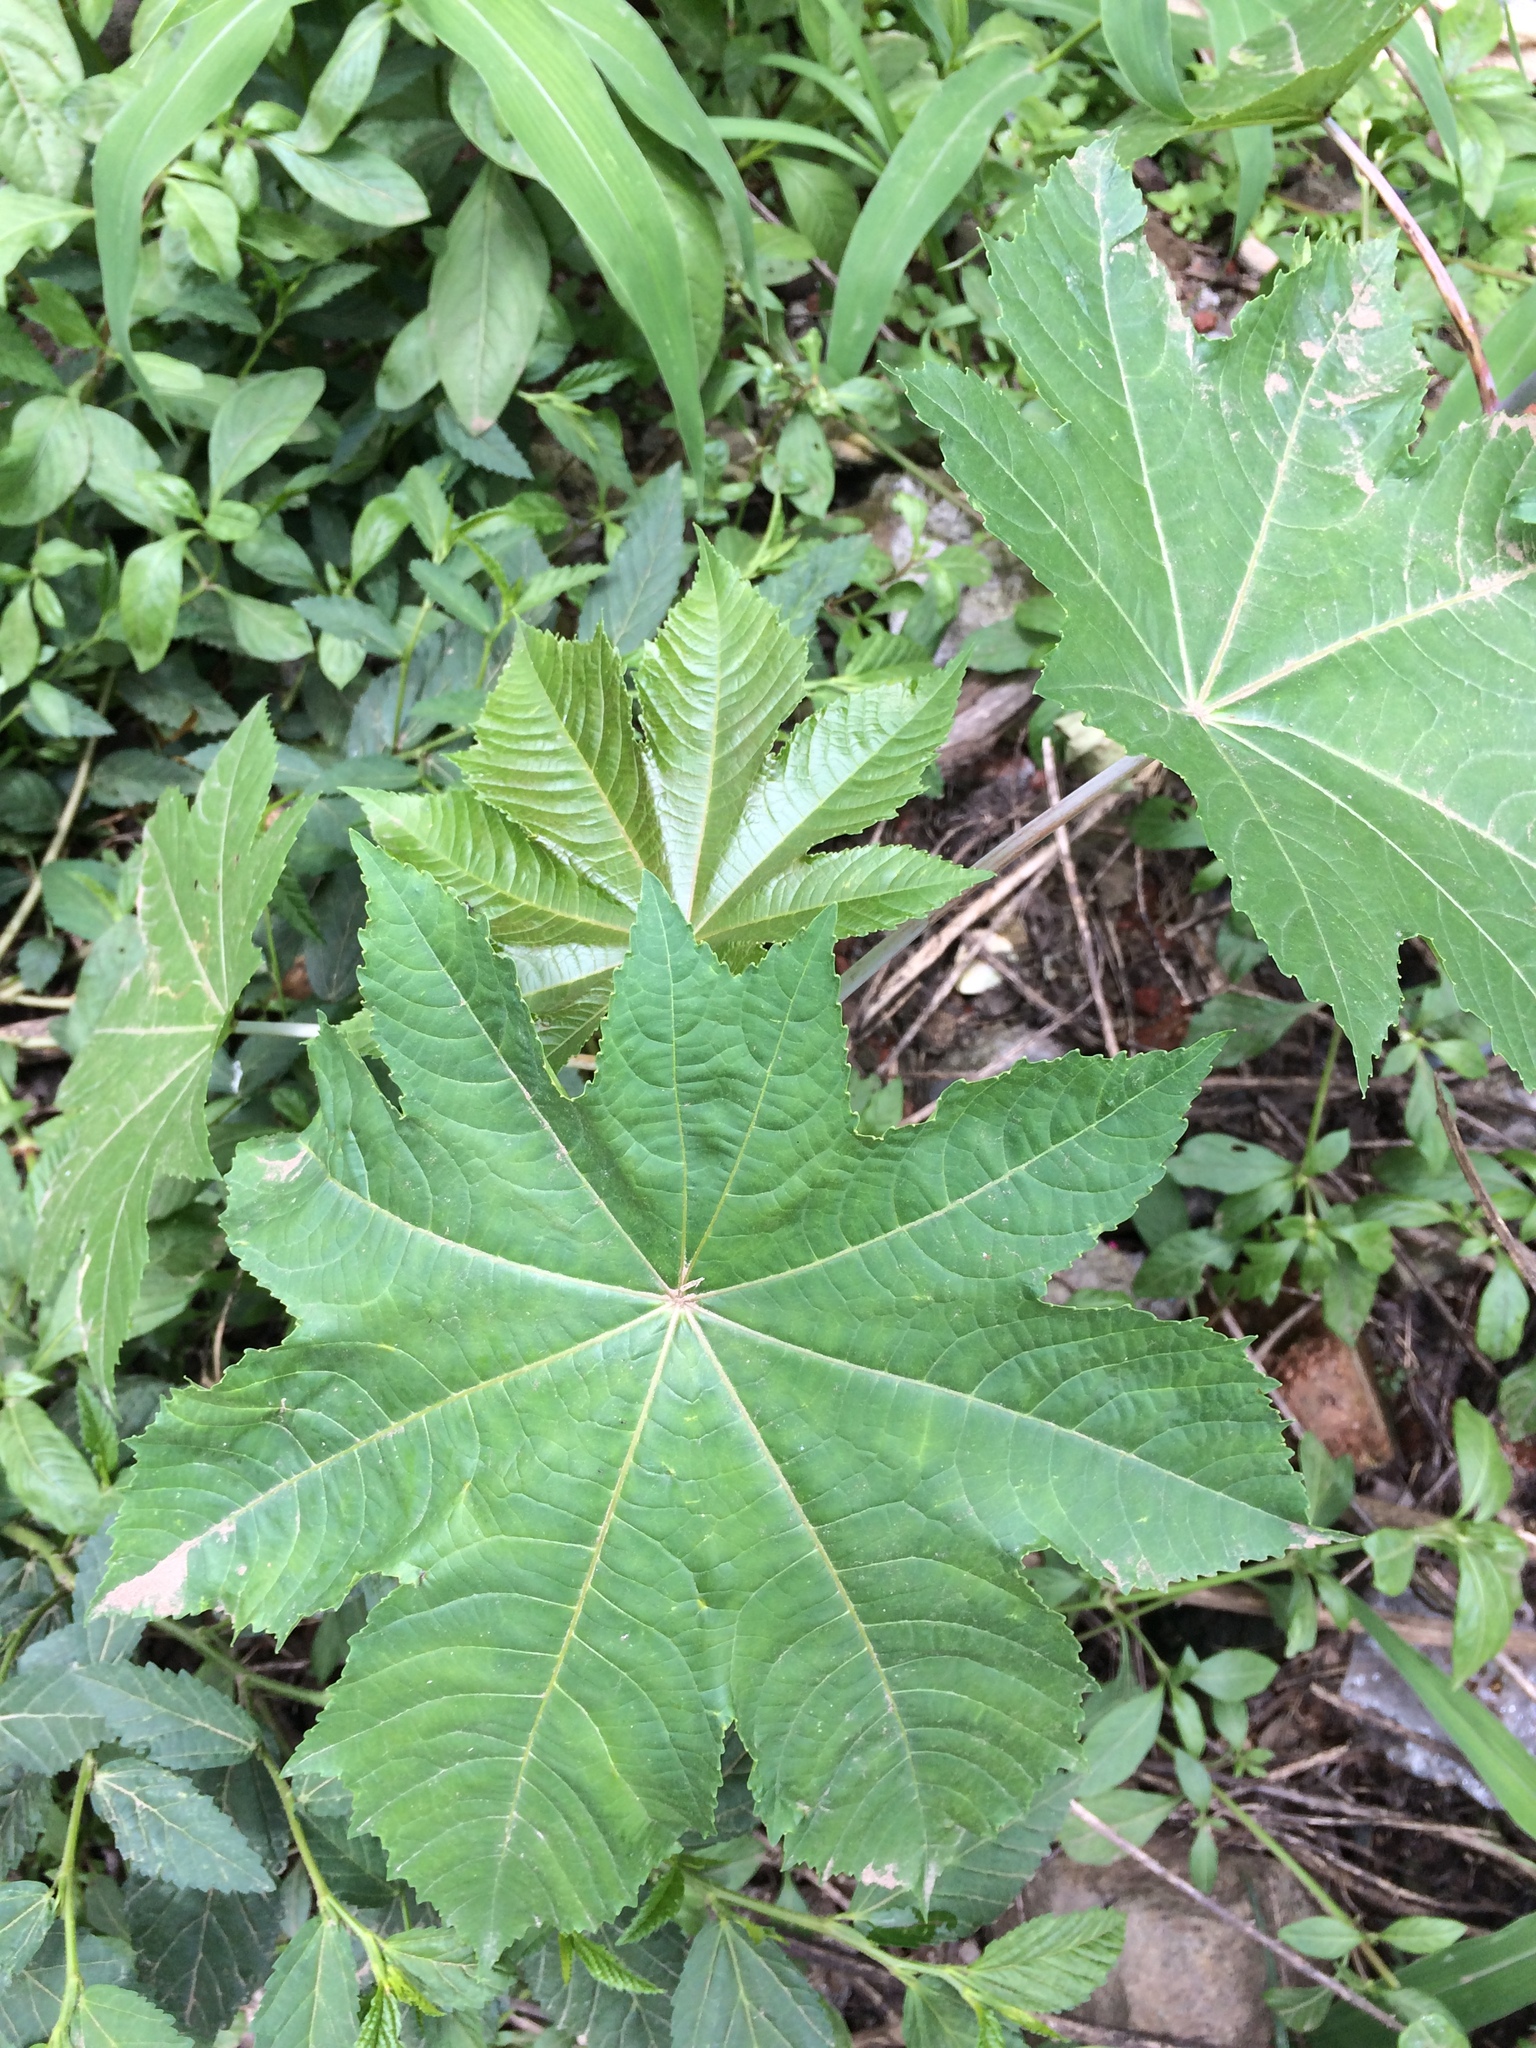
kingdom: Plantae
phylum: Tracheophyta
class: Magnoliopsida
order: Malpighiales
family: Euphorbiaceae
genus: Ricinus
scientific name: Ricinus communis
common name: Castor-oil-plant
